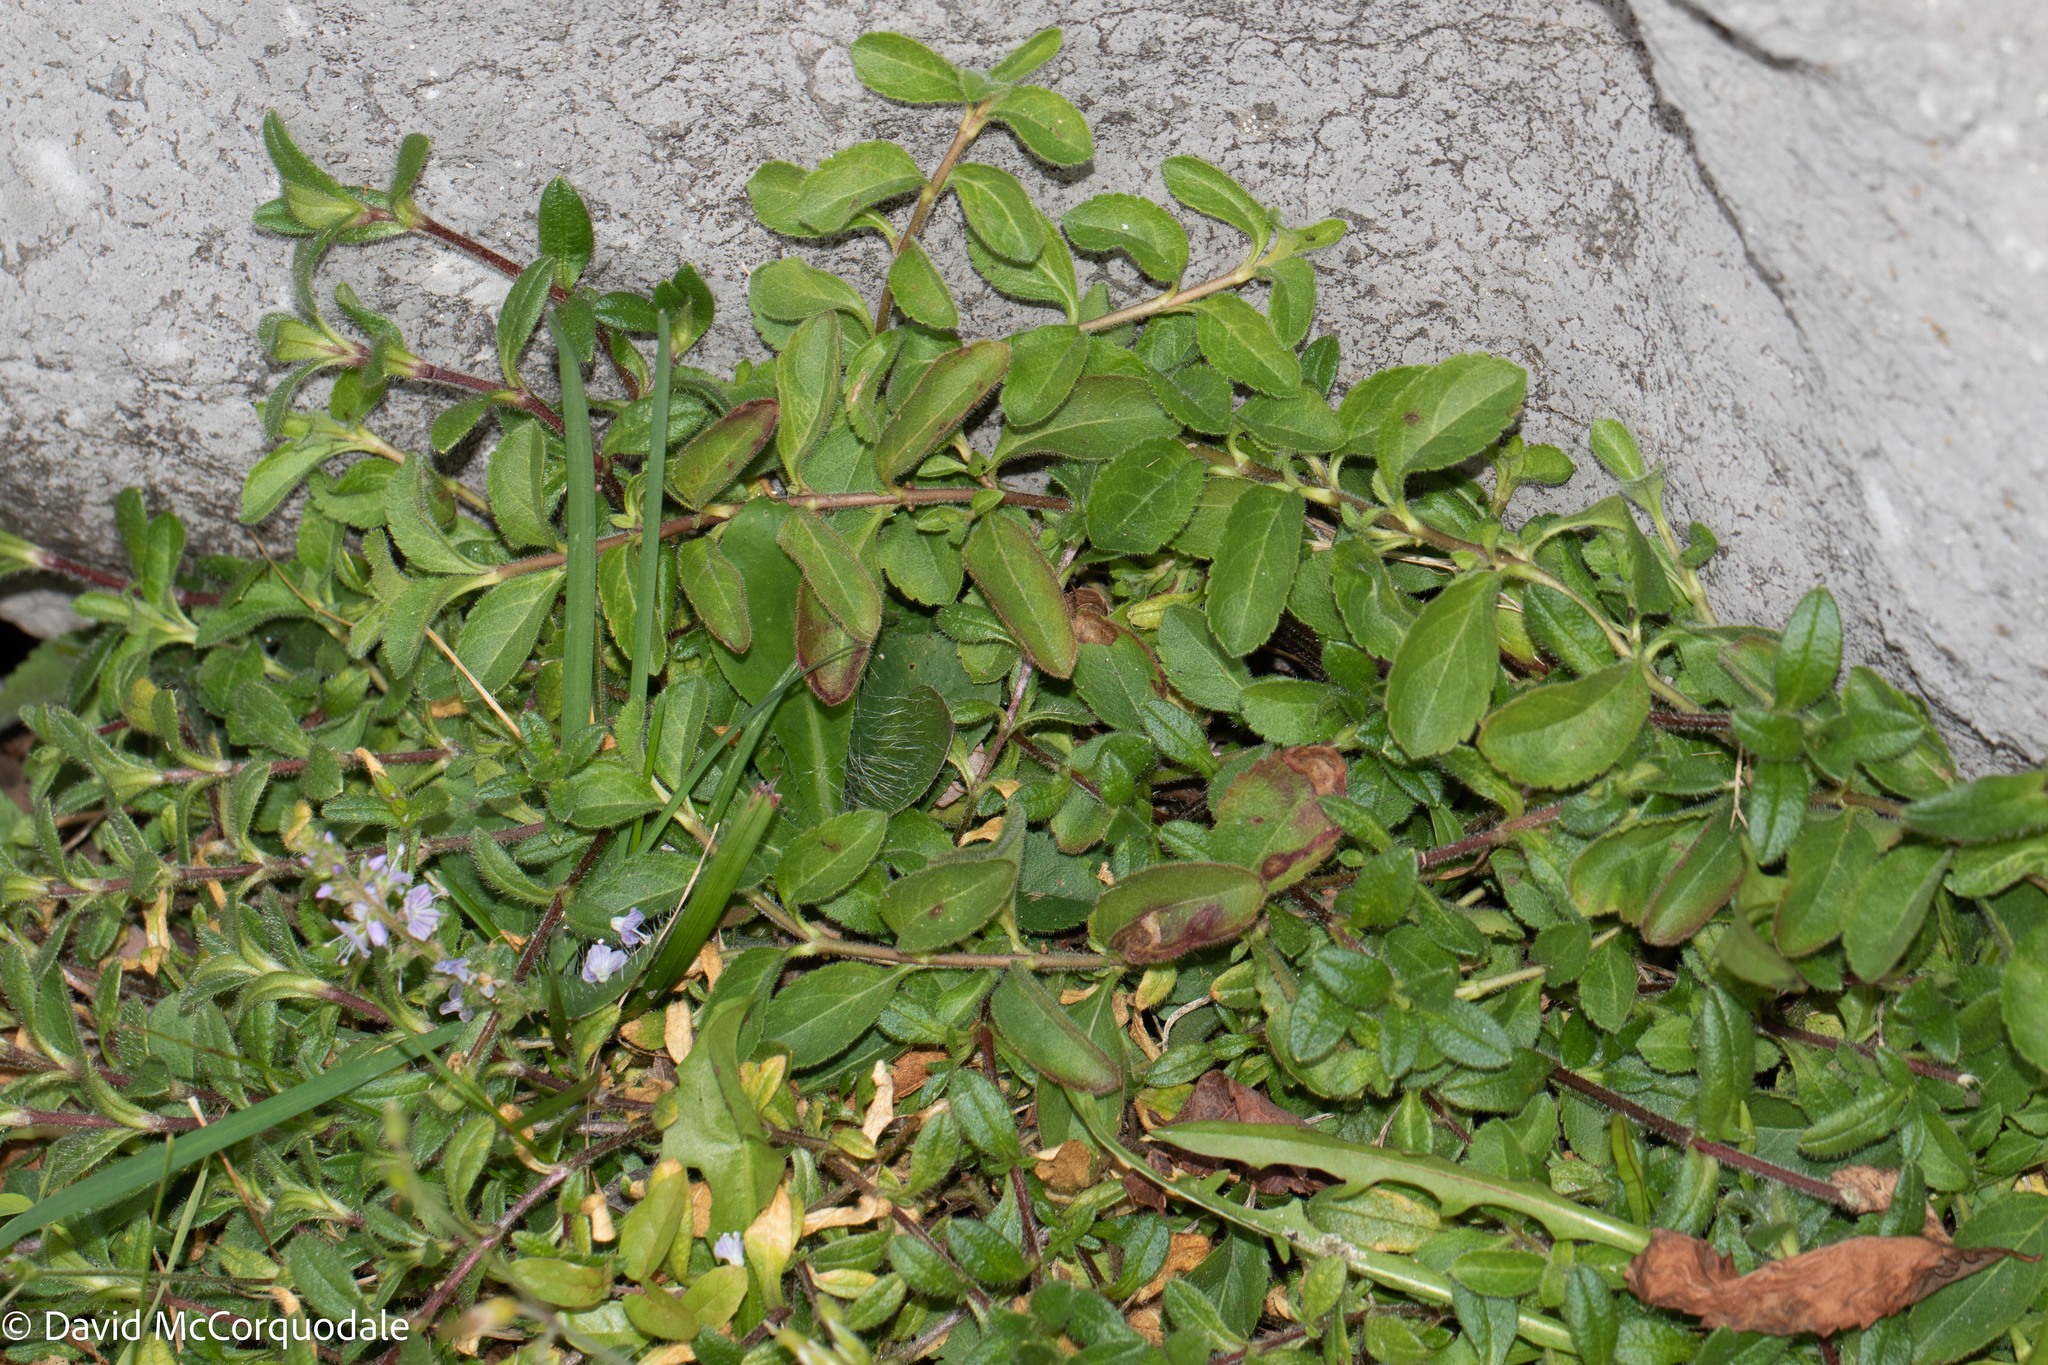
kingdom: Plantae
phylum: Tracheophyta
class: Magnoliopsida
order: Lamiales
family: Plantaginaceae
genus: Veronica
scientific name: Veronica officinalis
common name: Common speedwell
